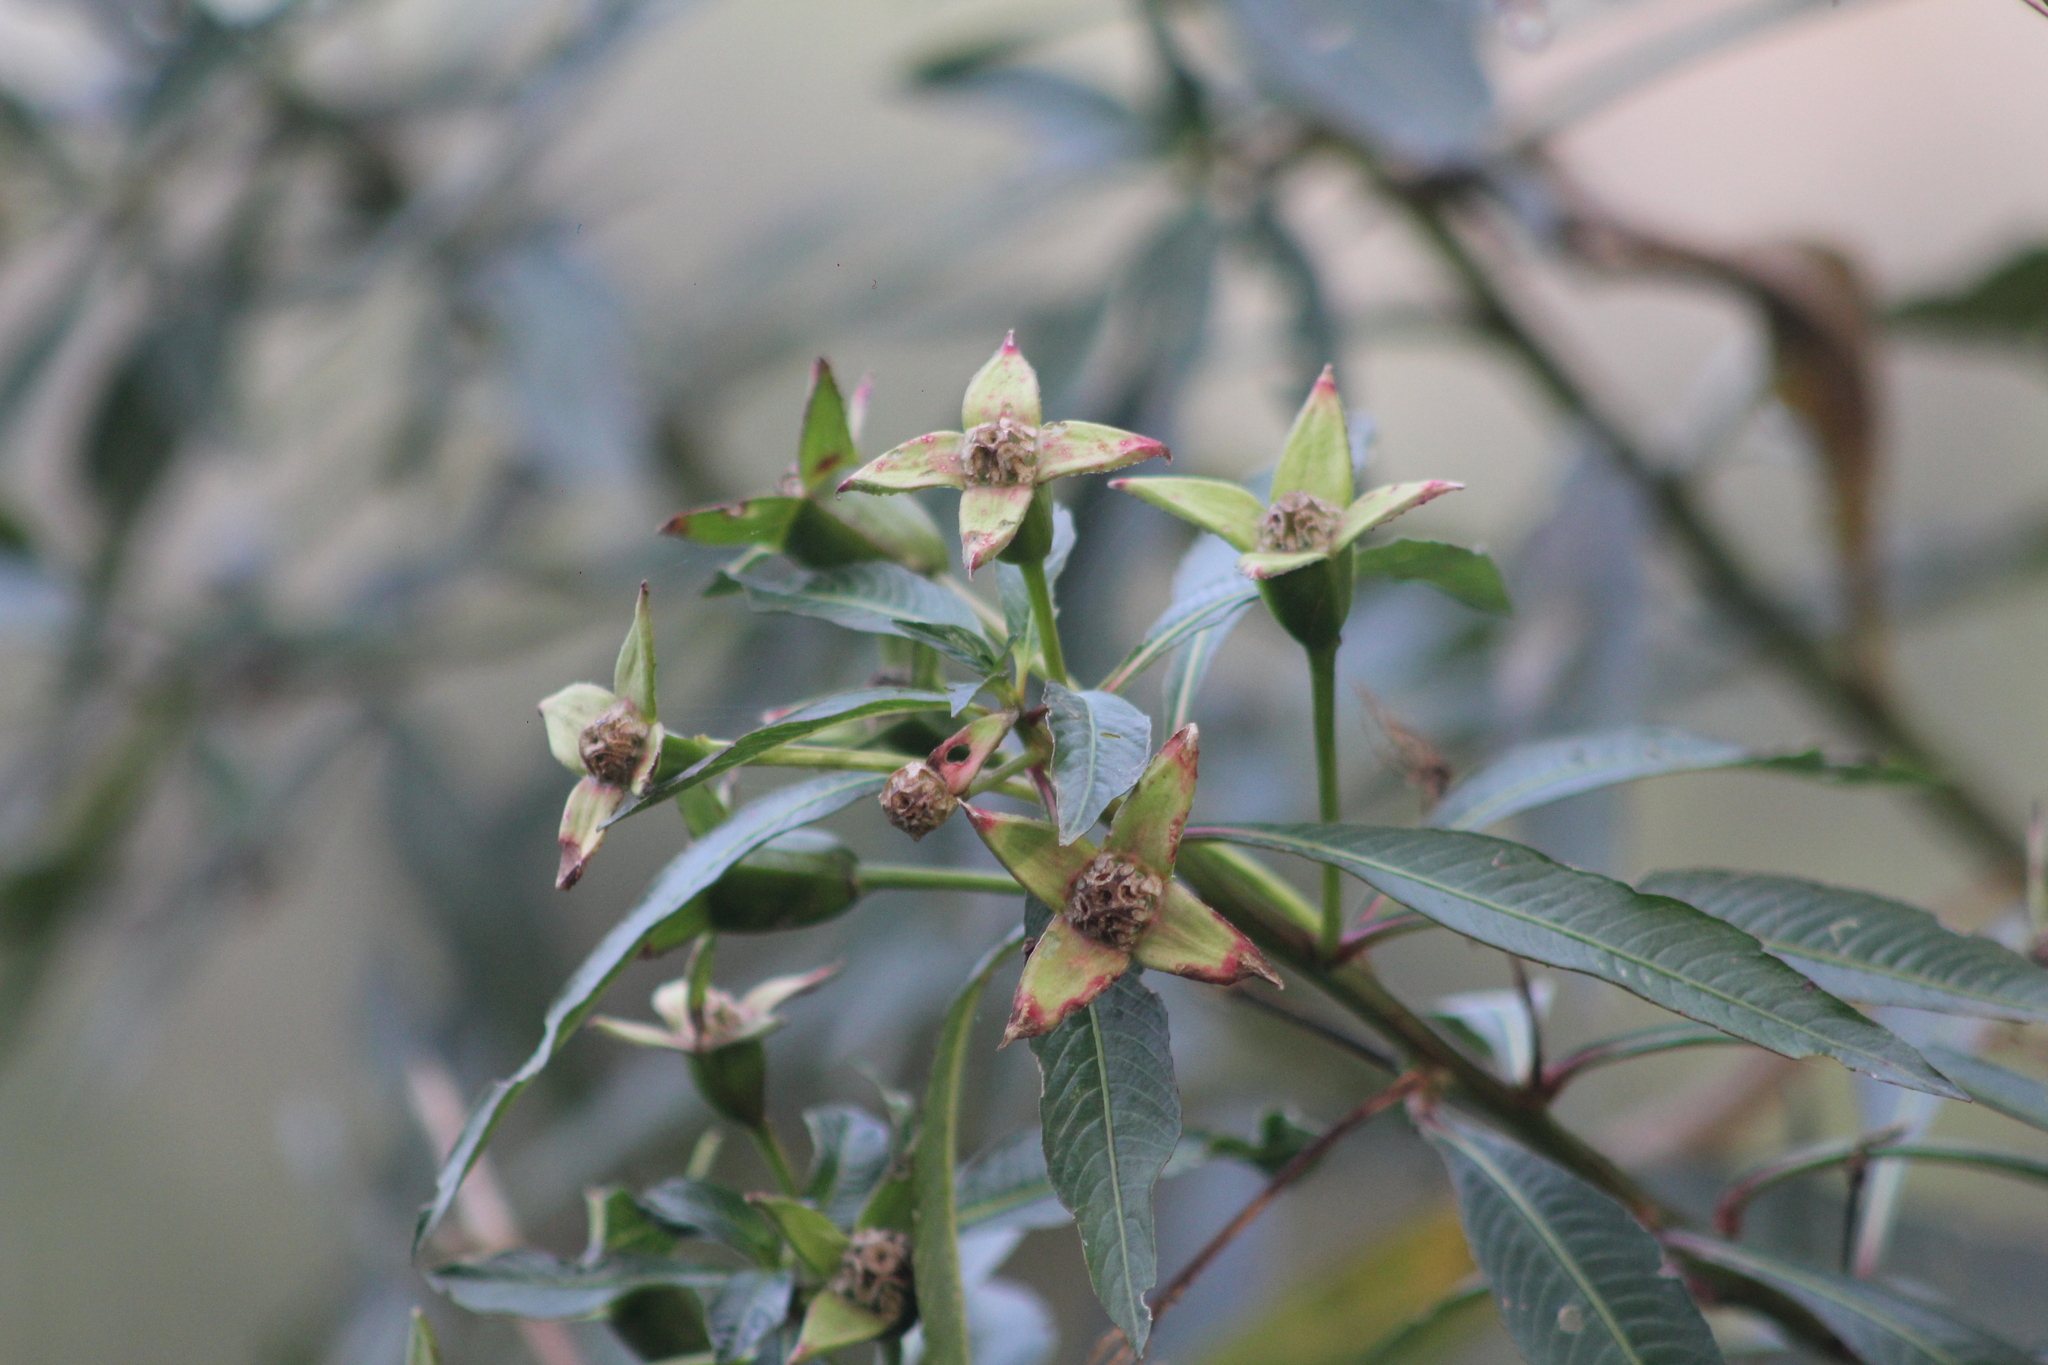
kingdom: Plantae
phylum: Tracheophyta
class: Magnoliopsida
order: Myrtales
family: Onagraceae
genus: Ludwigia
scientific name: Ludwigia elegans
